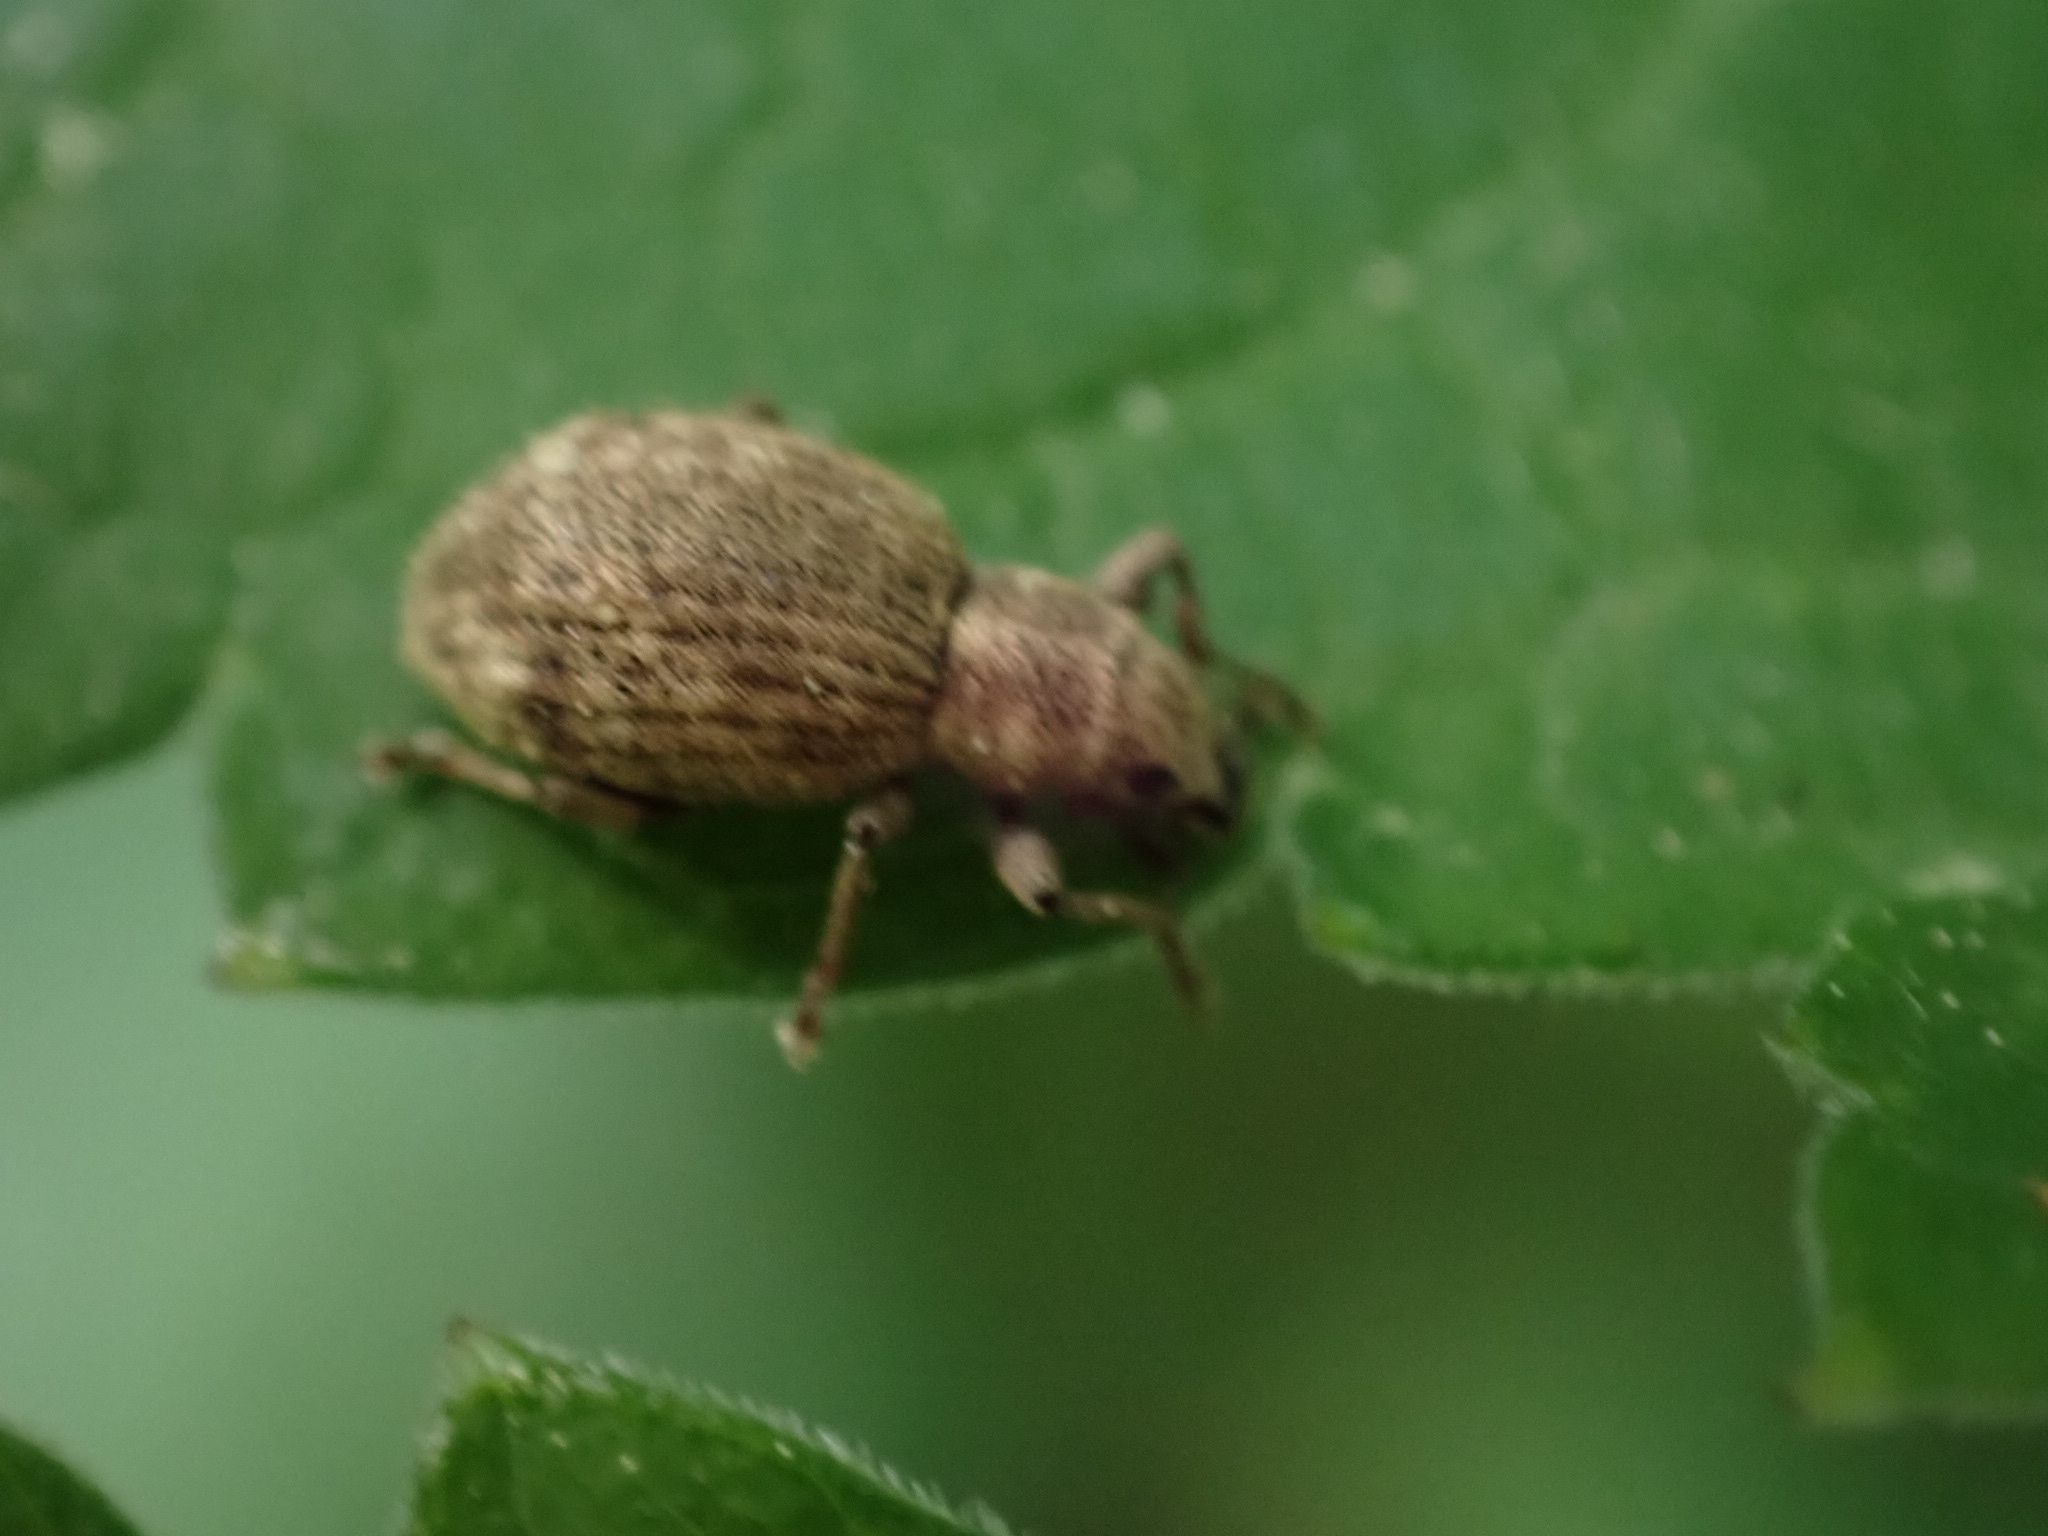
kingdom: Animalia
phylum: Arthropoda
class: Insecta
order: Coleoptera
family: Curculionidae
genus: Sciaphilus
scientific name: Sciaphilus asperatus
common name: Weevil
